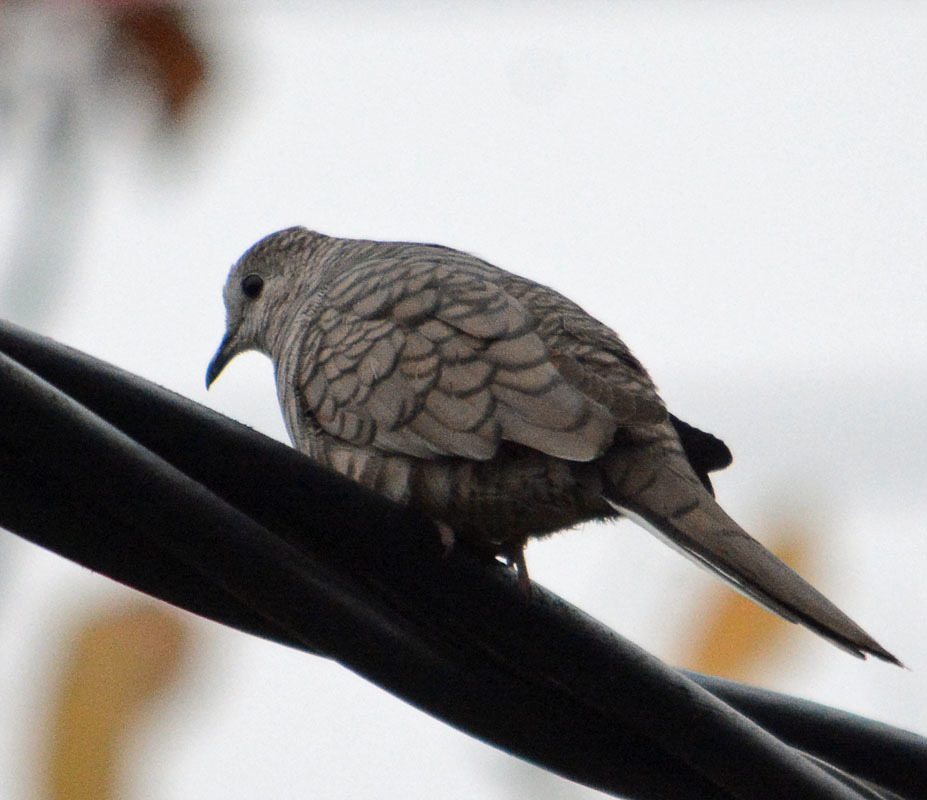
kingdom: Animalia
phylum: Chordata
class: Aves
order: Columbiformes
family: Columbidae
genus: Columbina
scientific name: Columbina inca
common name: Inca dove
